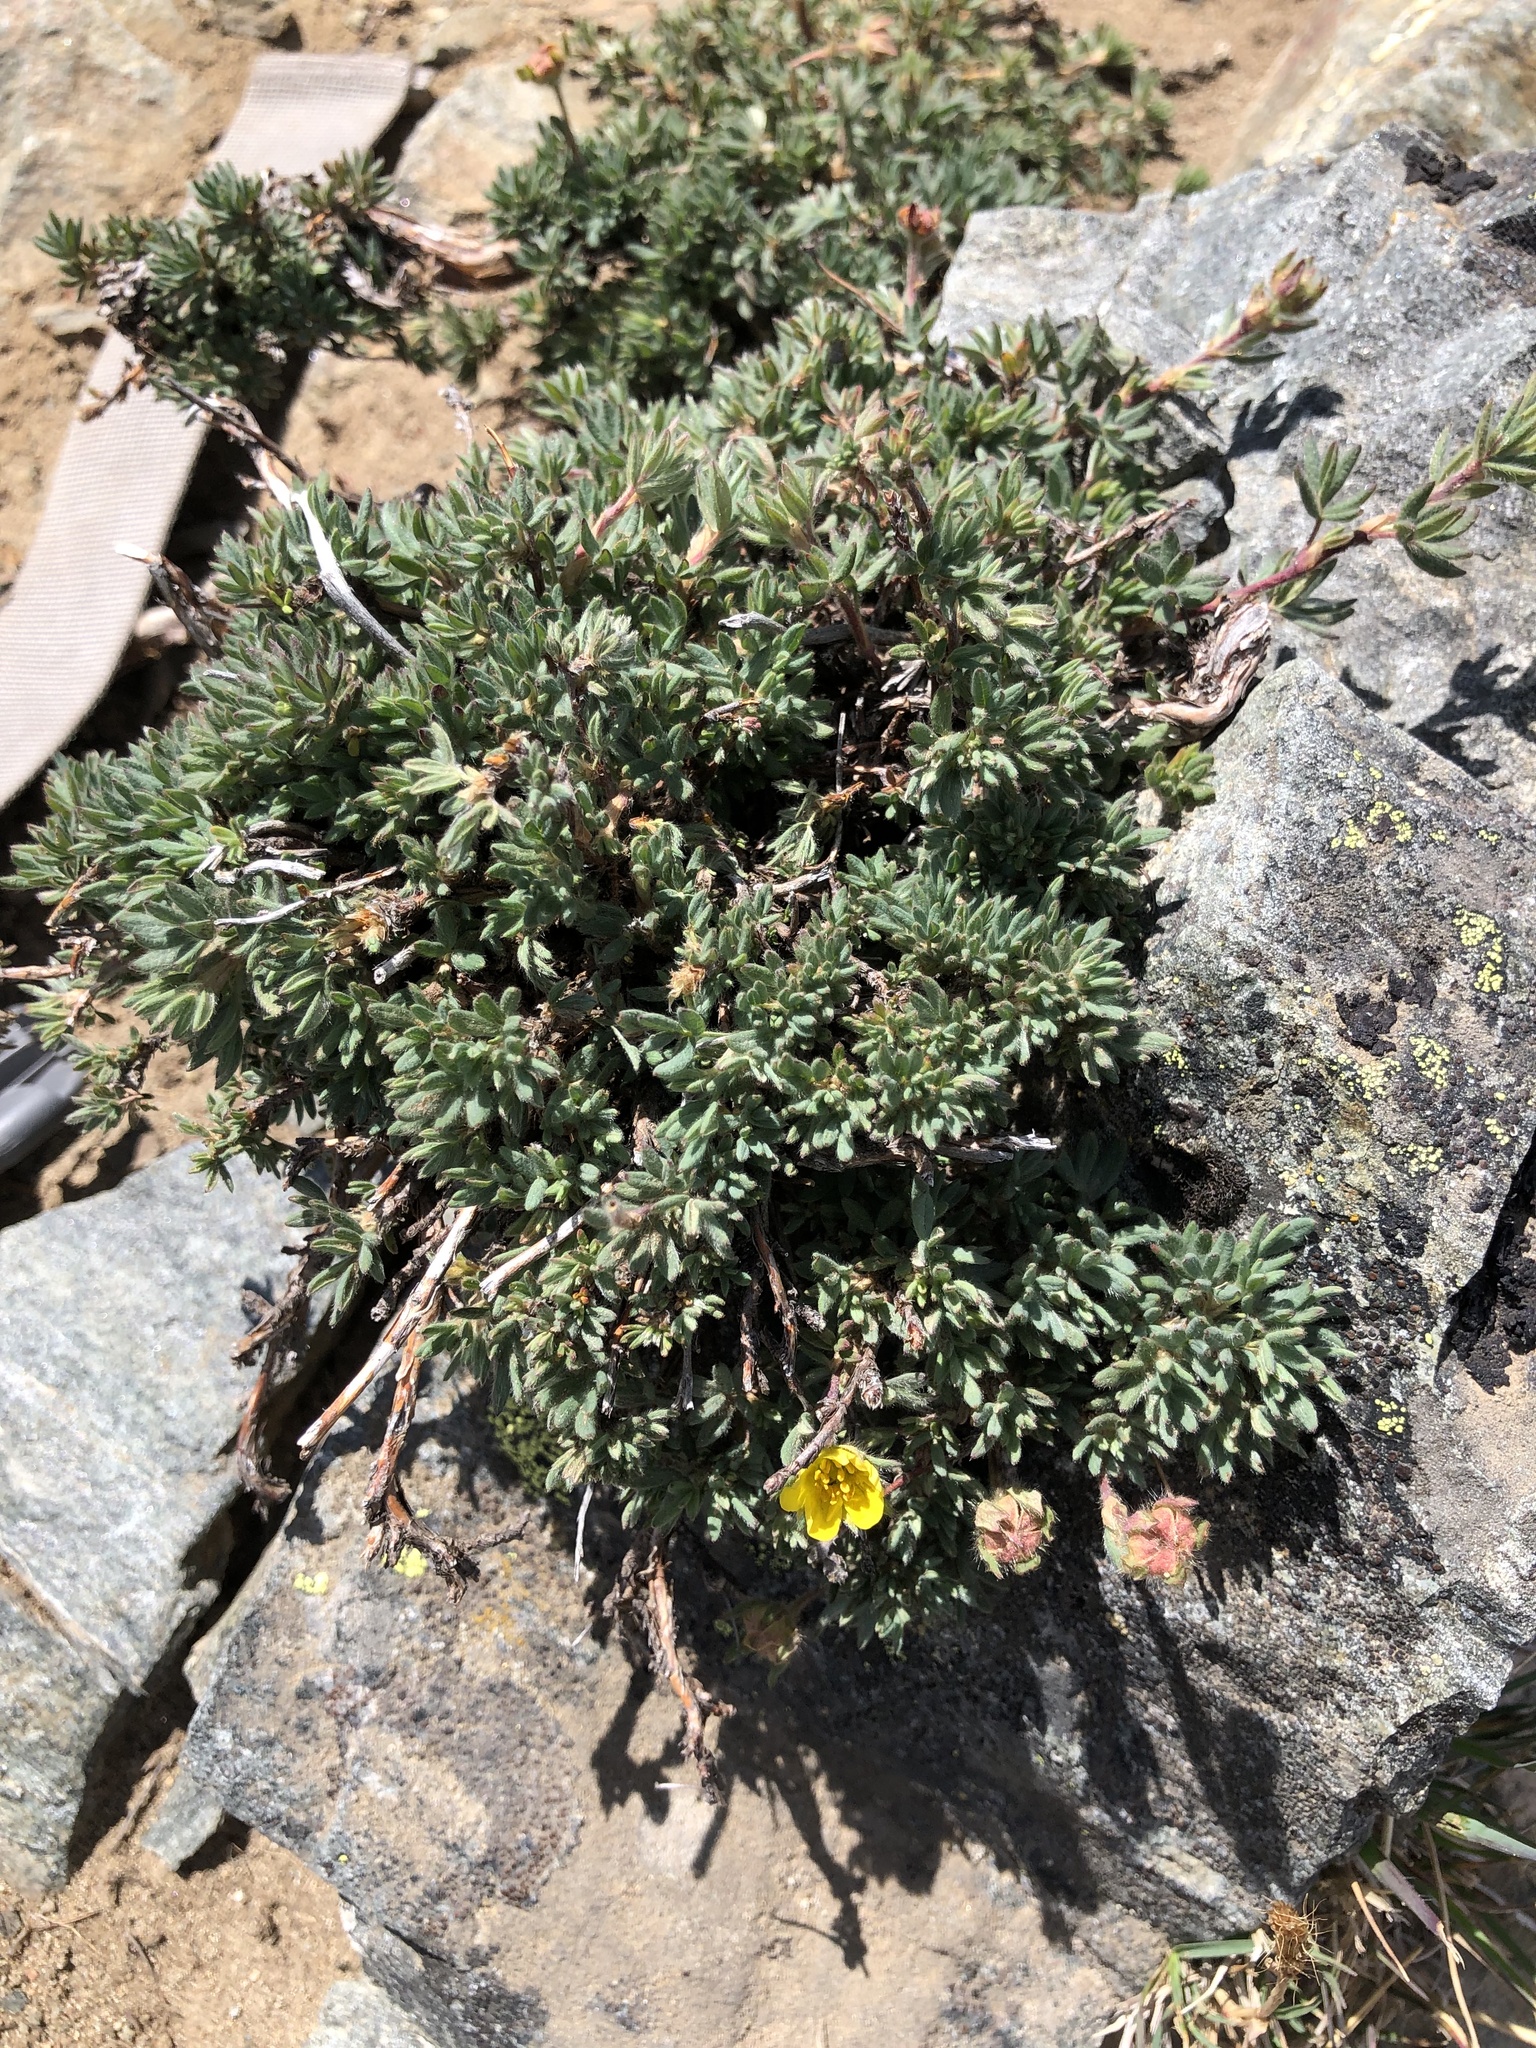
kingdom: Plantae
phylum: Tracheophyta
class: Magnoliopsida
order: Rosales
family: Rosaceae
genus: Dasiphora
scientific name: Dasiphora fruticosa
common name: Shrubby cinquefoil
